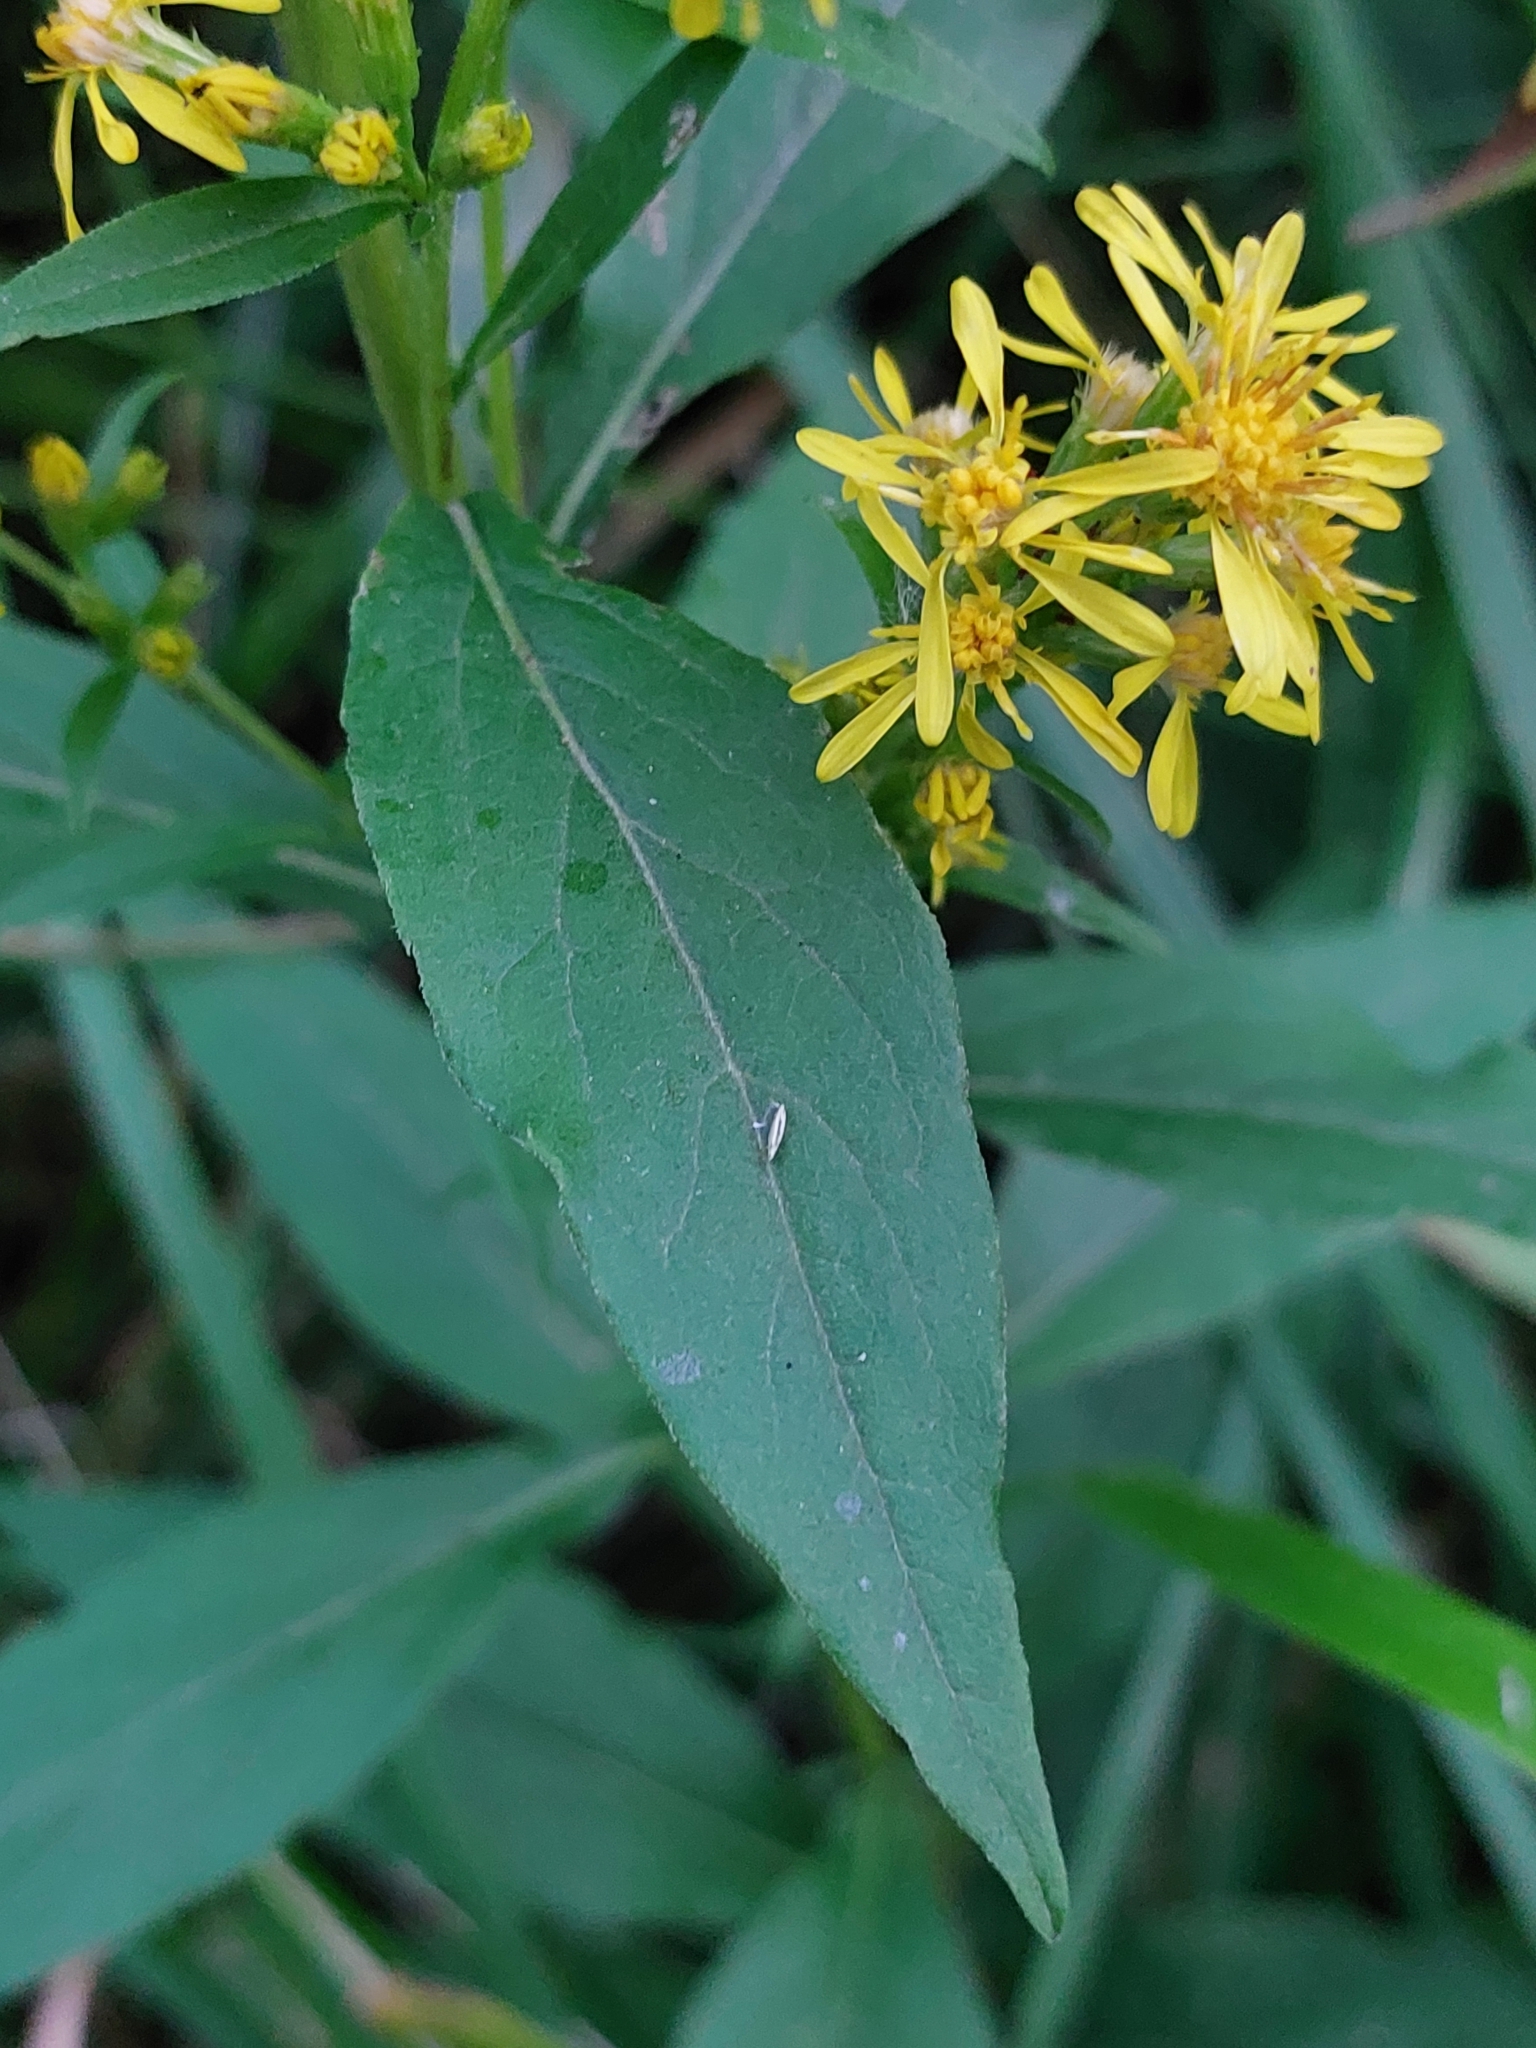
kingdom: Plantae
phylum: Tracheophyta
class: Magnoliopsida
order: Asterales
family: Asteraceae
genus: Solidago
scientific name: Solidago virgaurea
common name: Goldenrod
